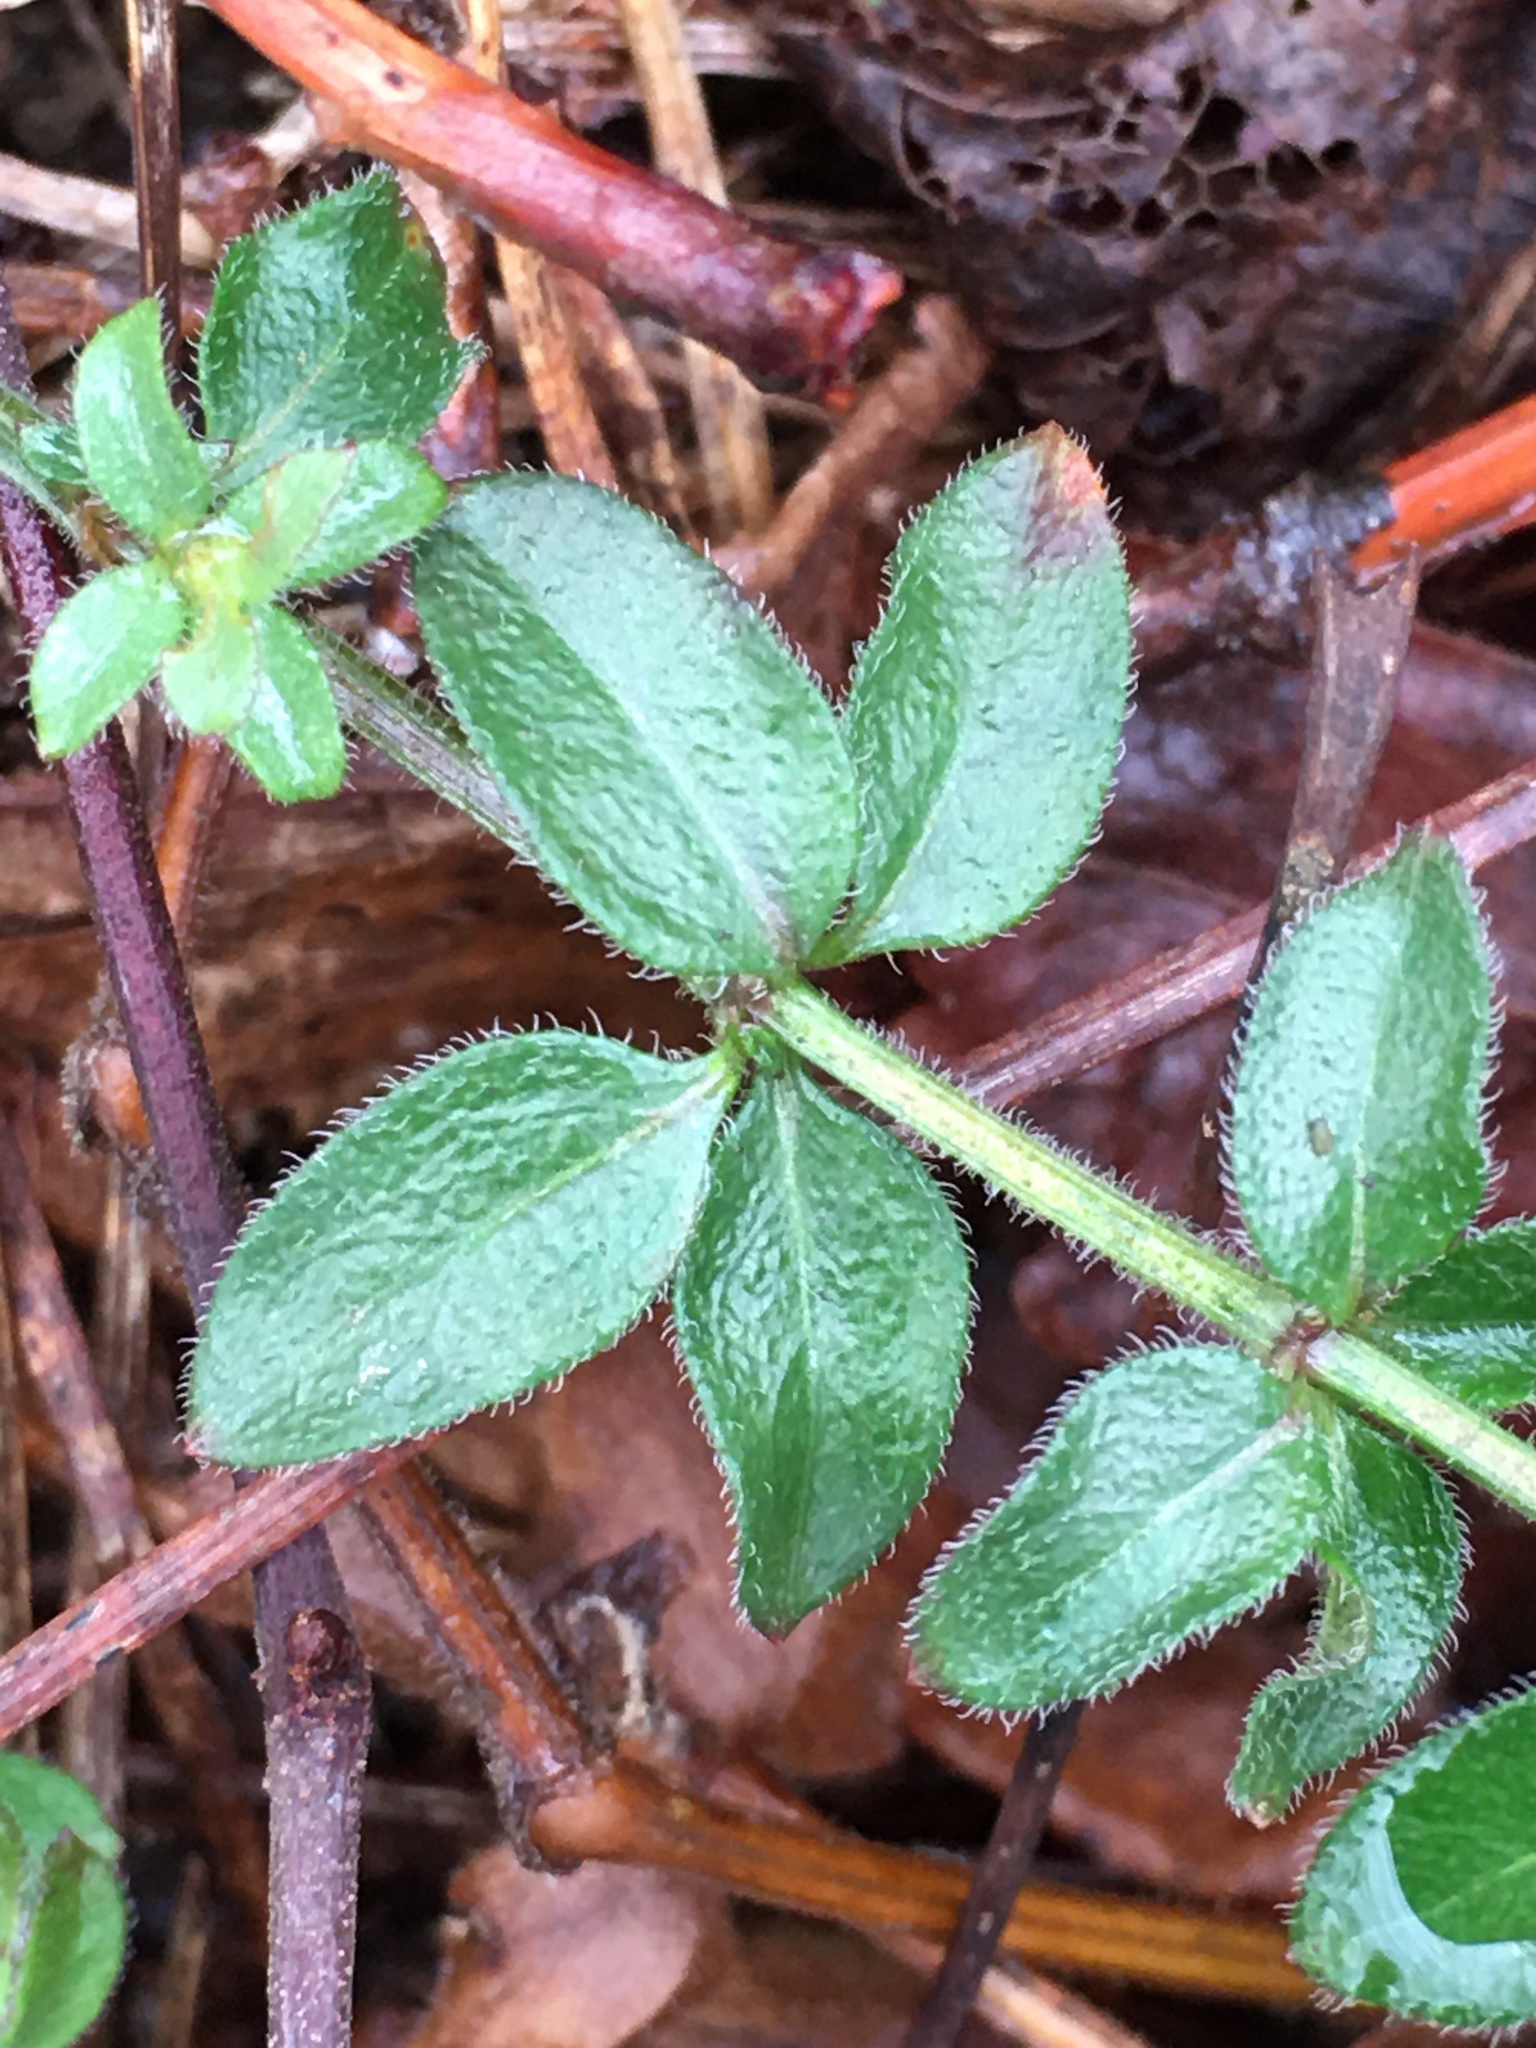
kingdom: Plantae
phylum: Tracheophyta
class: Magnoliopsida
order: Gentianales
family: Rubiaceae
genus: Galium
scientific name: Galium pilosum
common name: Hairy bedstraw
